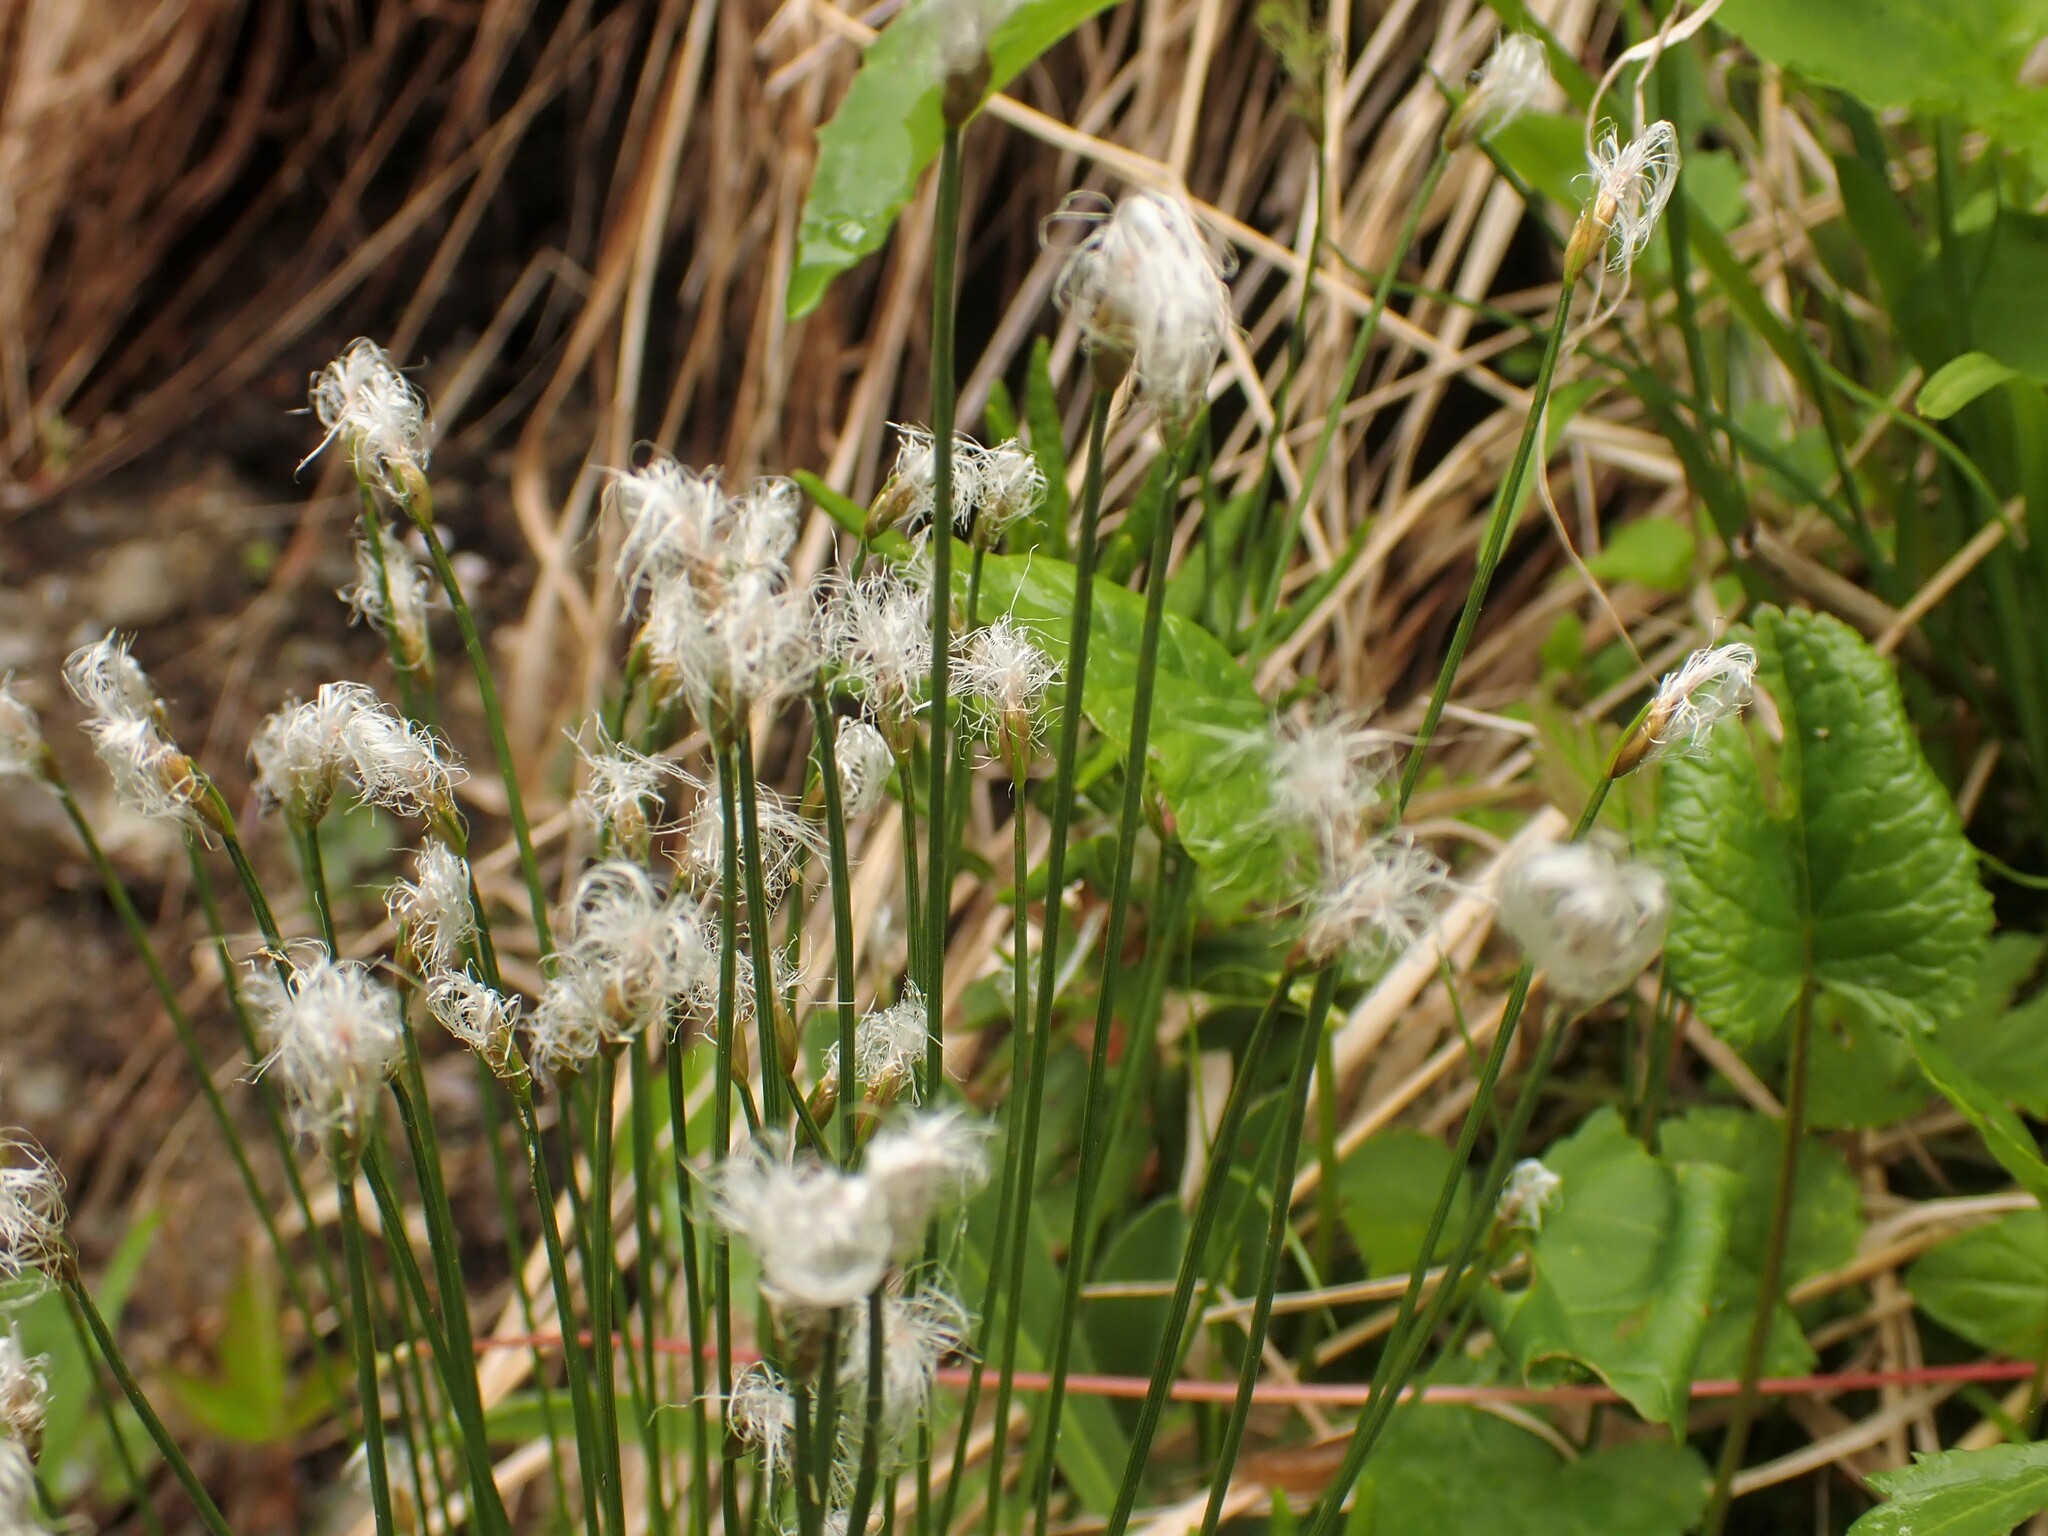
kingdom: Plantae
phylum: Tracheophyta
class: Liliopsida
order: Poales
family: Cyperaceae
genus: Trichophorum
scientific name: Trichophorum alpinum
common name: Alpine bulrush
